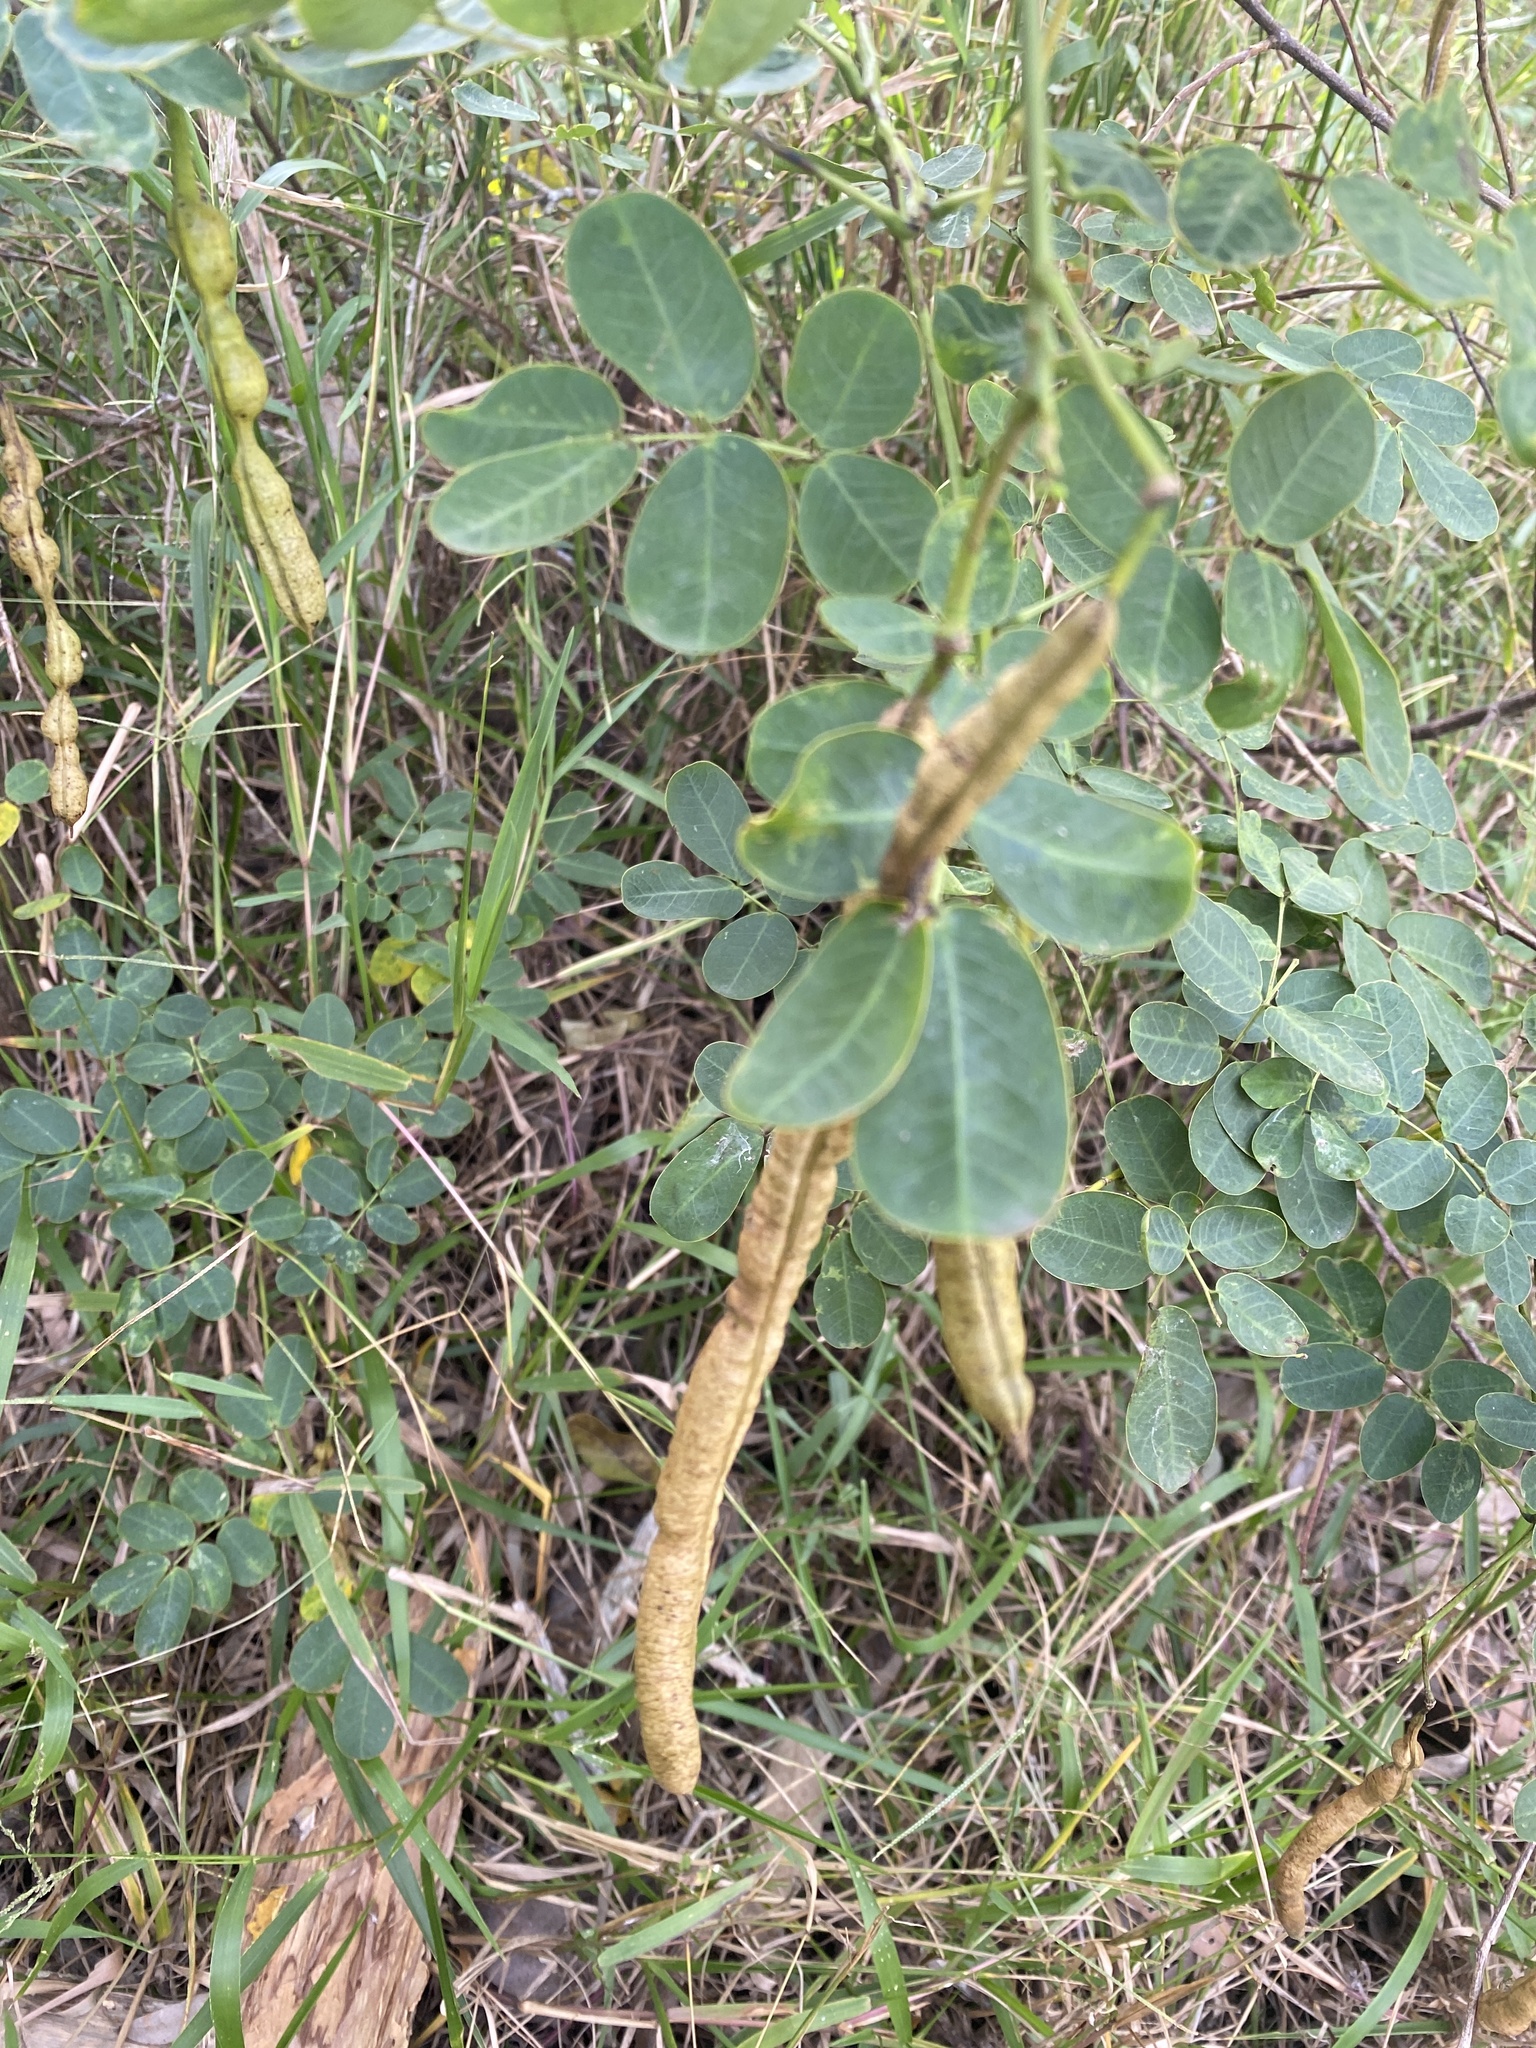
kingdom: Plantae
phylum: Tracheophyta
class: Magnoliopsida
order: Fabales
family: Fabaceae
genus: Senna
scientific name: Senna pendula
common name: Easter cassia
